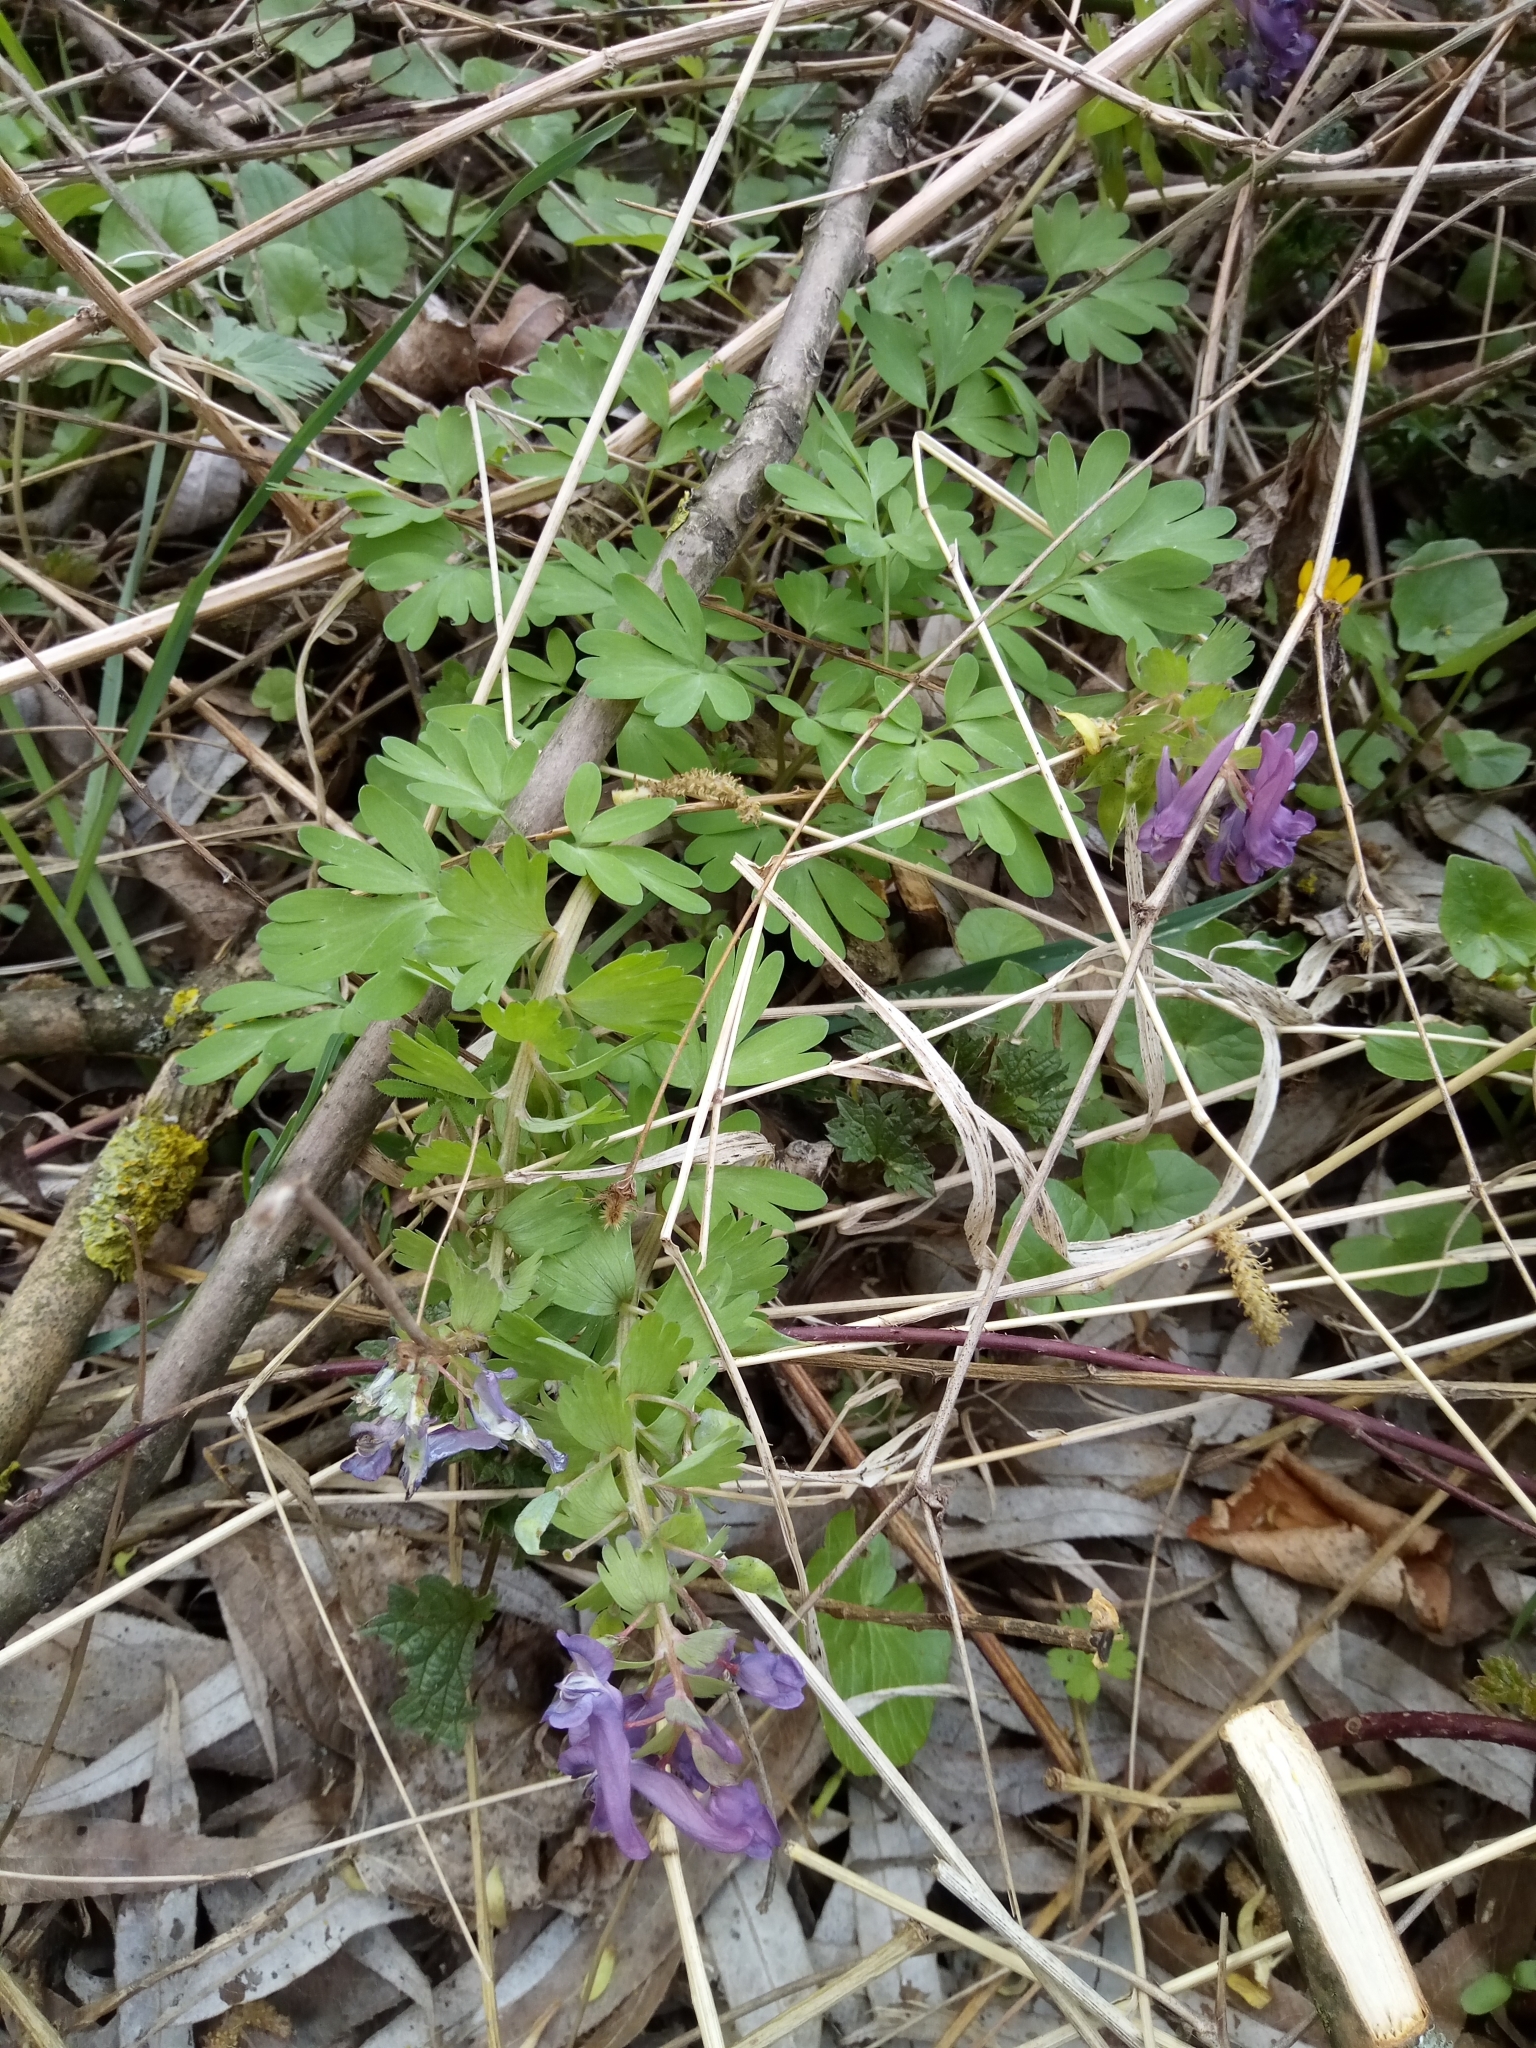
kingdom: Plantae
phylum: Tracheophyta
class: Magnoliopsida
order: Ranunculales
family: Papaveraceae
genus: Corydalis
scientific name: Corydalis solida
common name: Bird-in-a-bush
